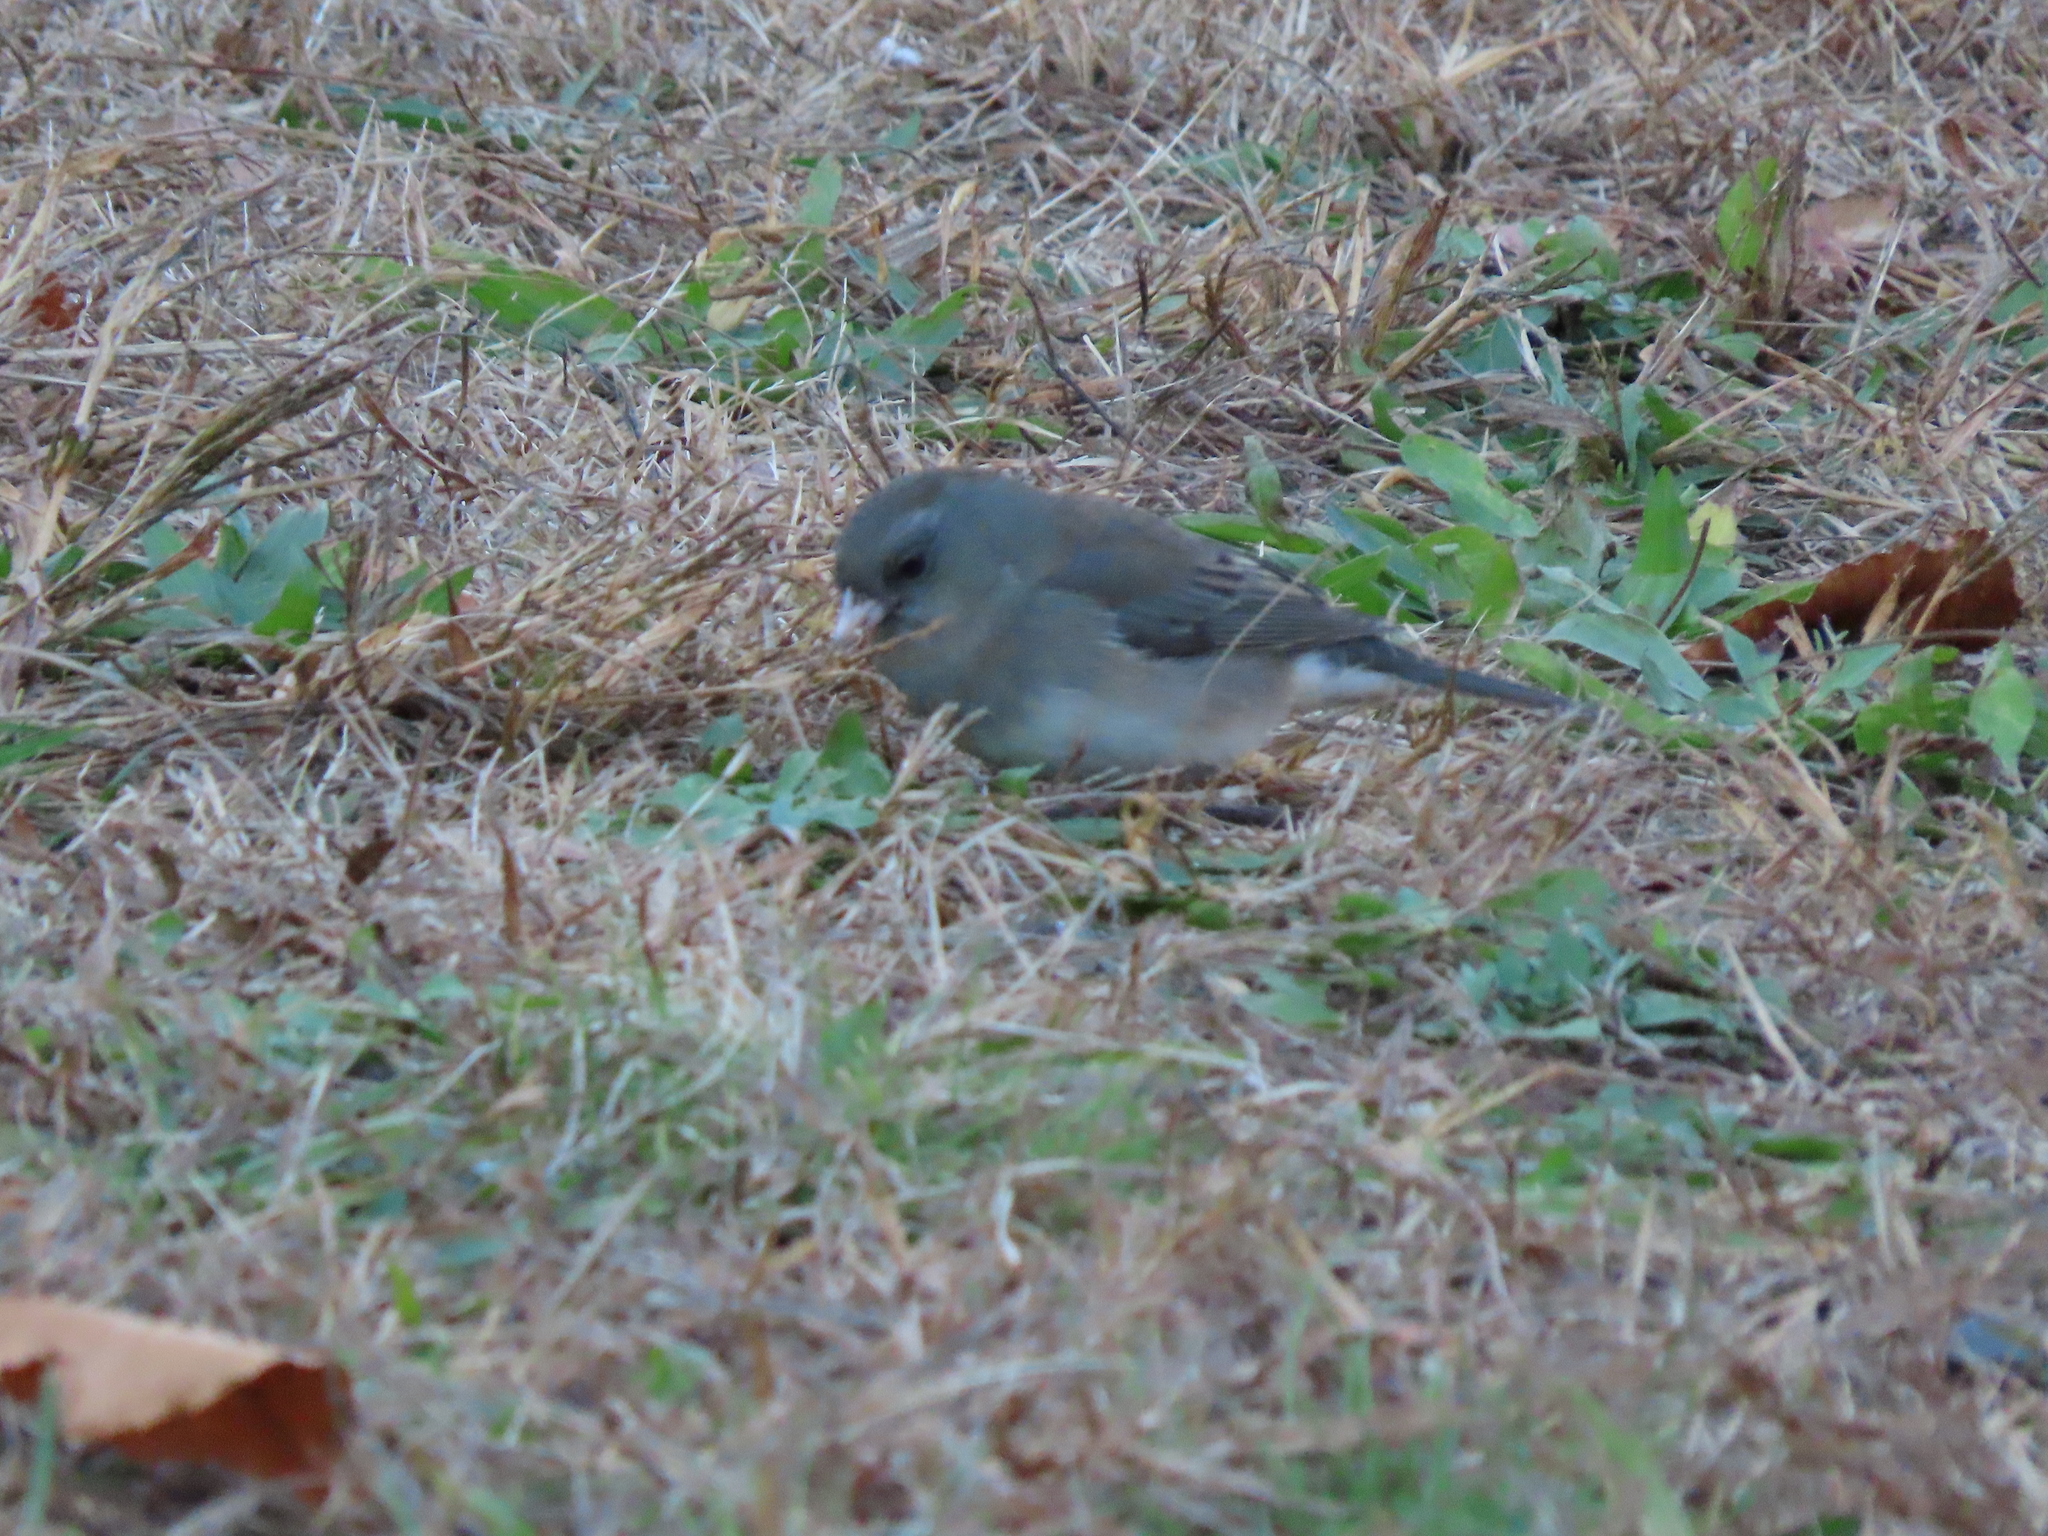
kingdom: Animalia
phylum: Chordata
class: Aves
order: Passeriformes
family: Passerellidae
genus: Junco
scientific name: Junco hyemalis
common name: Dark-eyed junco
